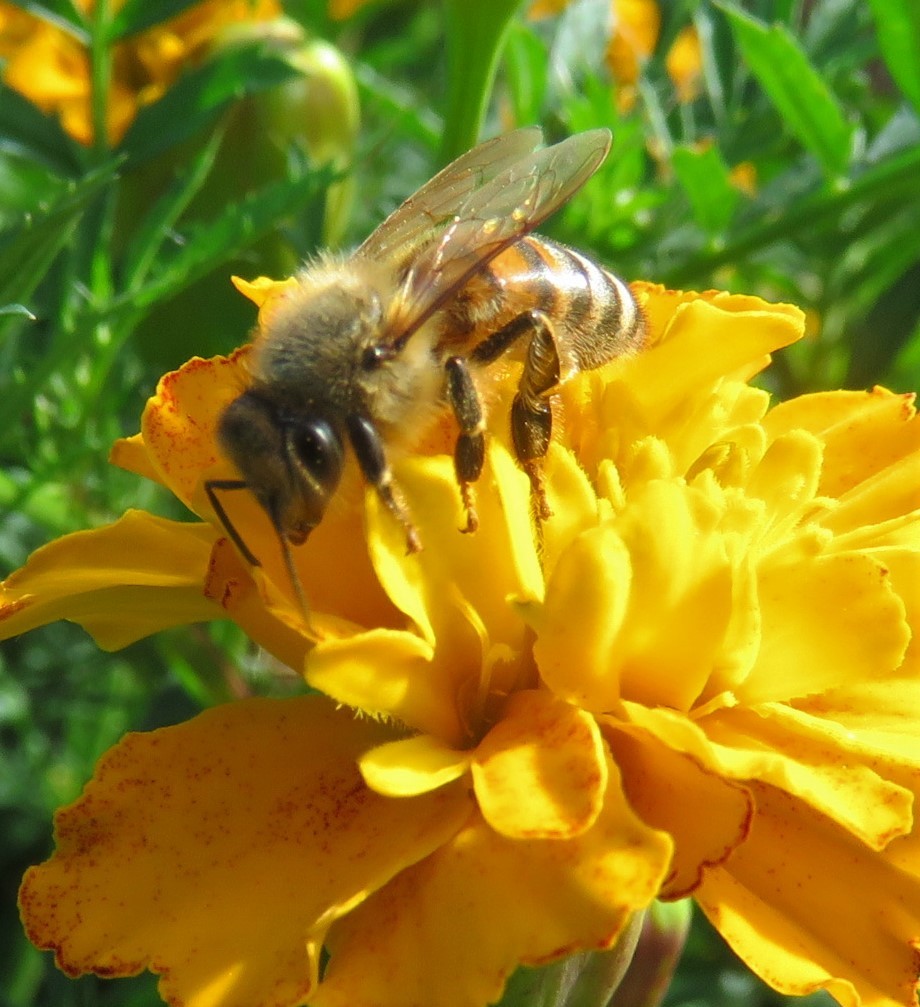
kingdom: Animalia
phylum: Arthropoda
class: Insecta
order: Hymenoptera
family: Apidae
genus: Apis
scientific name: Apis mellifera
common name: Honey bee
